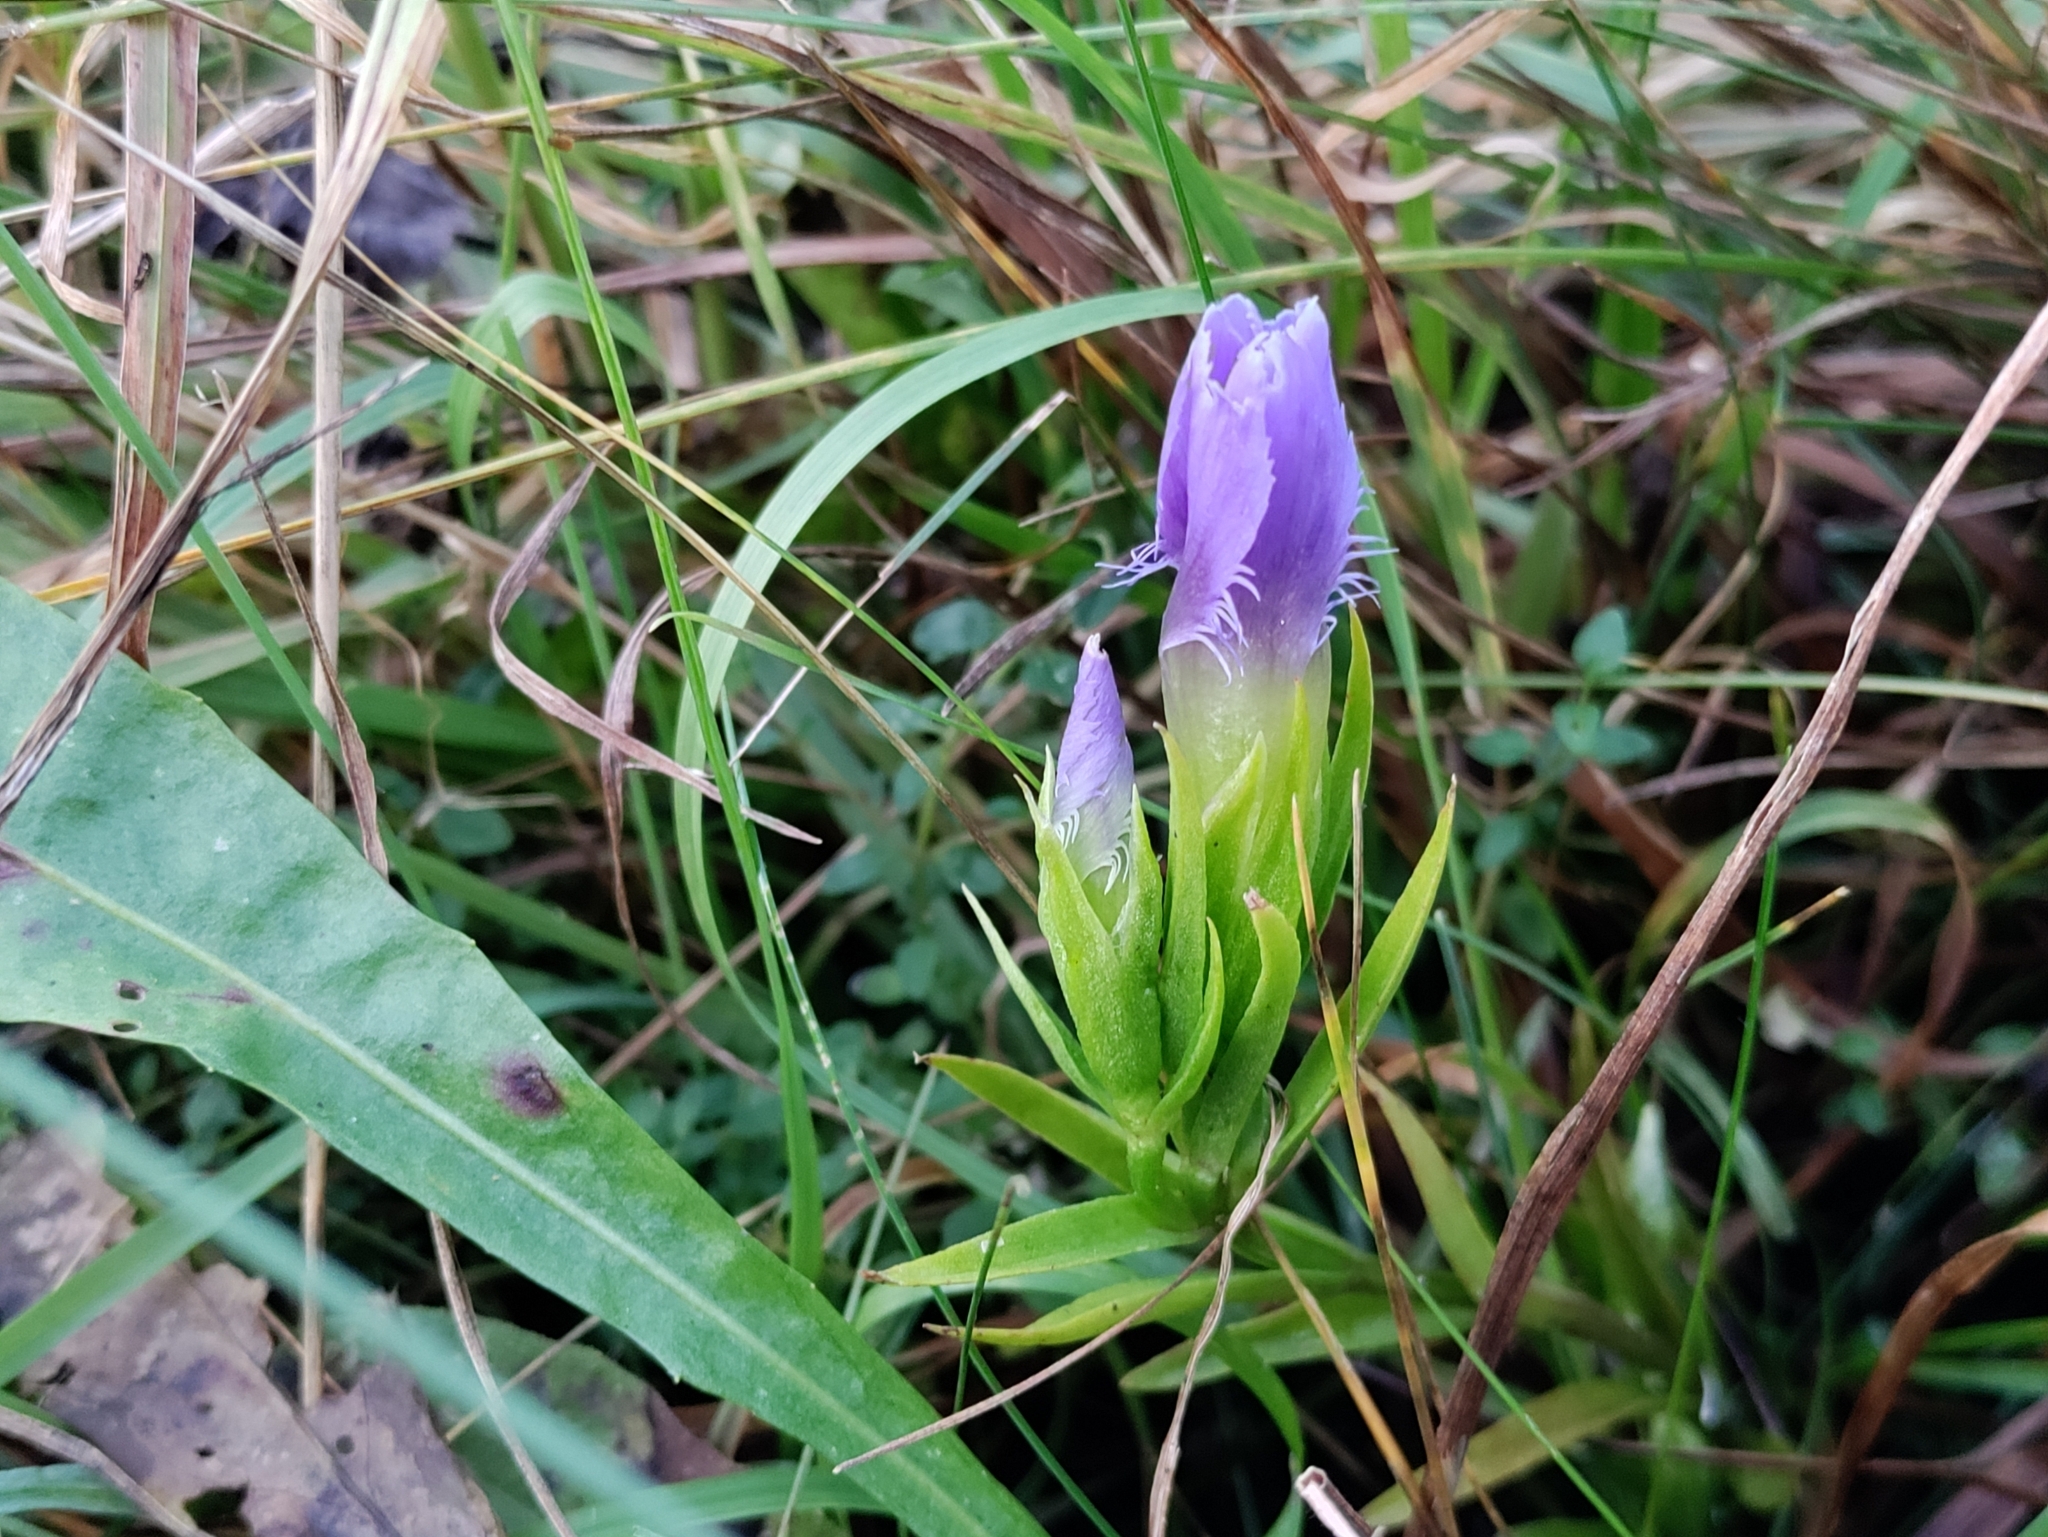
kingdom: Plantae
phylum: Tracheophyta
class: Magnoliopsida
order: Gentianales
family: Gentianaceae
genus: Gentianopsis
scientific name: Gentianopsis ciliata
